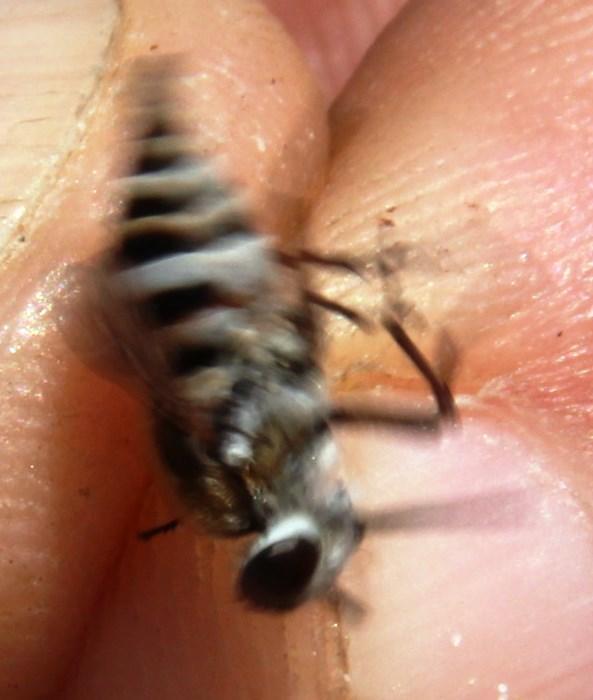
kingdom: Animalia
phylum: Arthropoda
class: Insecta
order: Diptera
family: Tabanidae
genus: Philoliche
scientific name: Philoliche alternans
